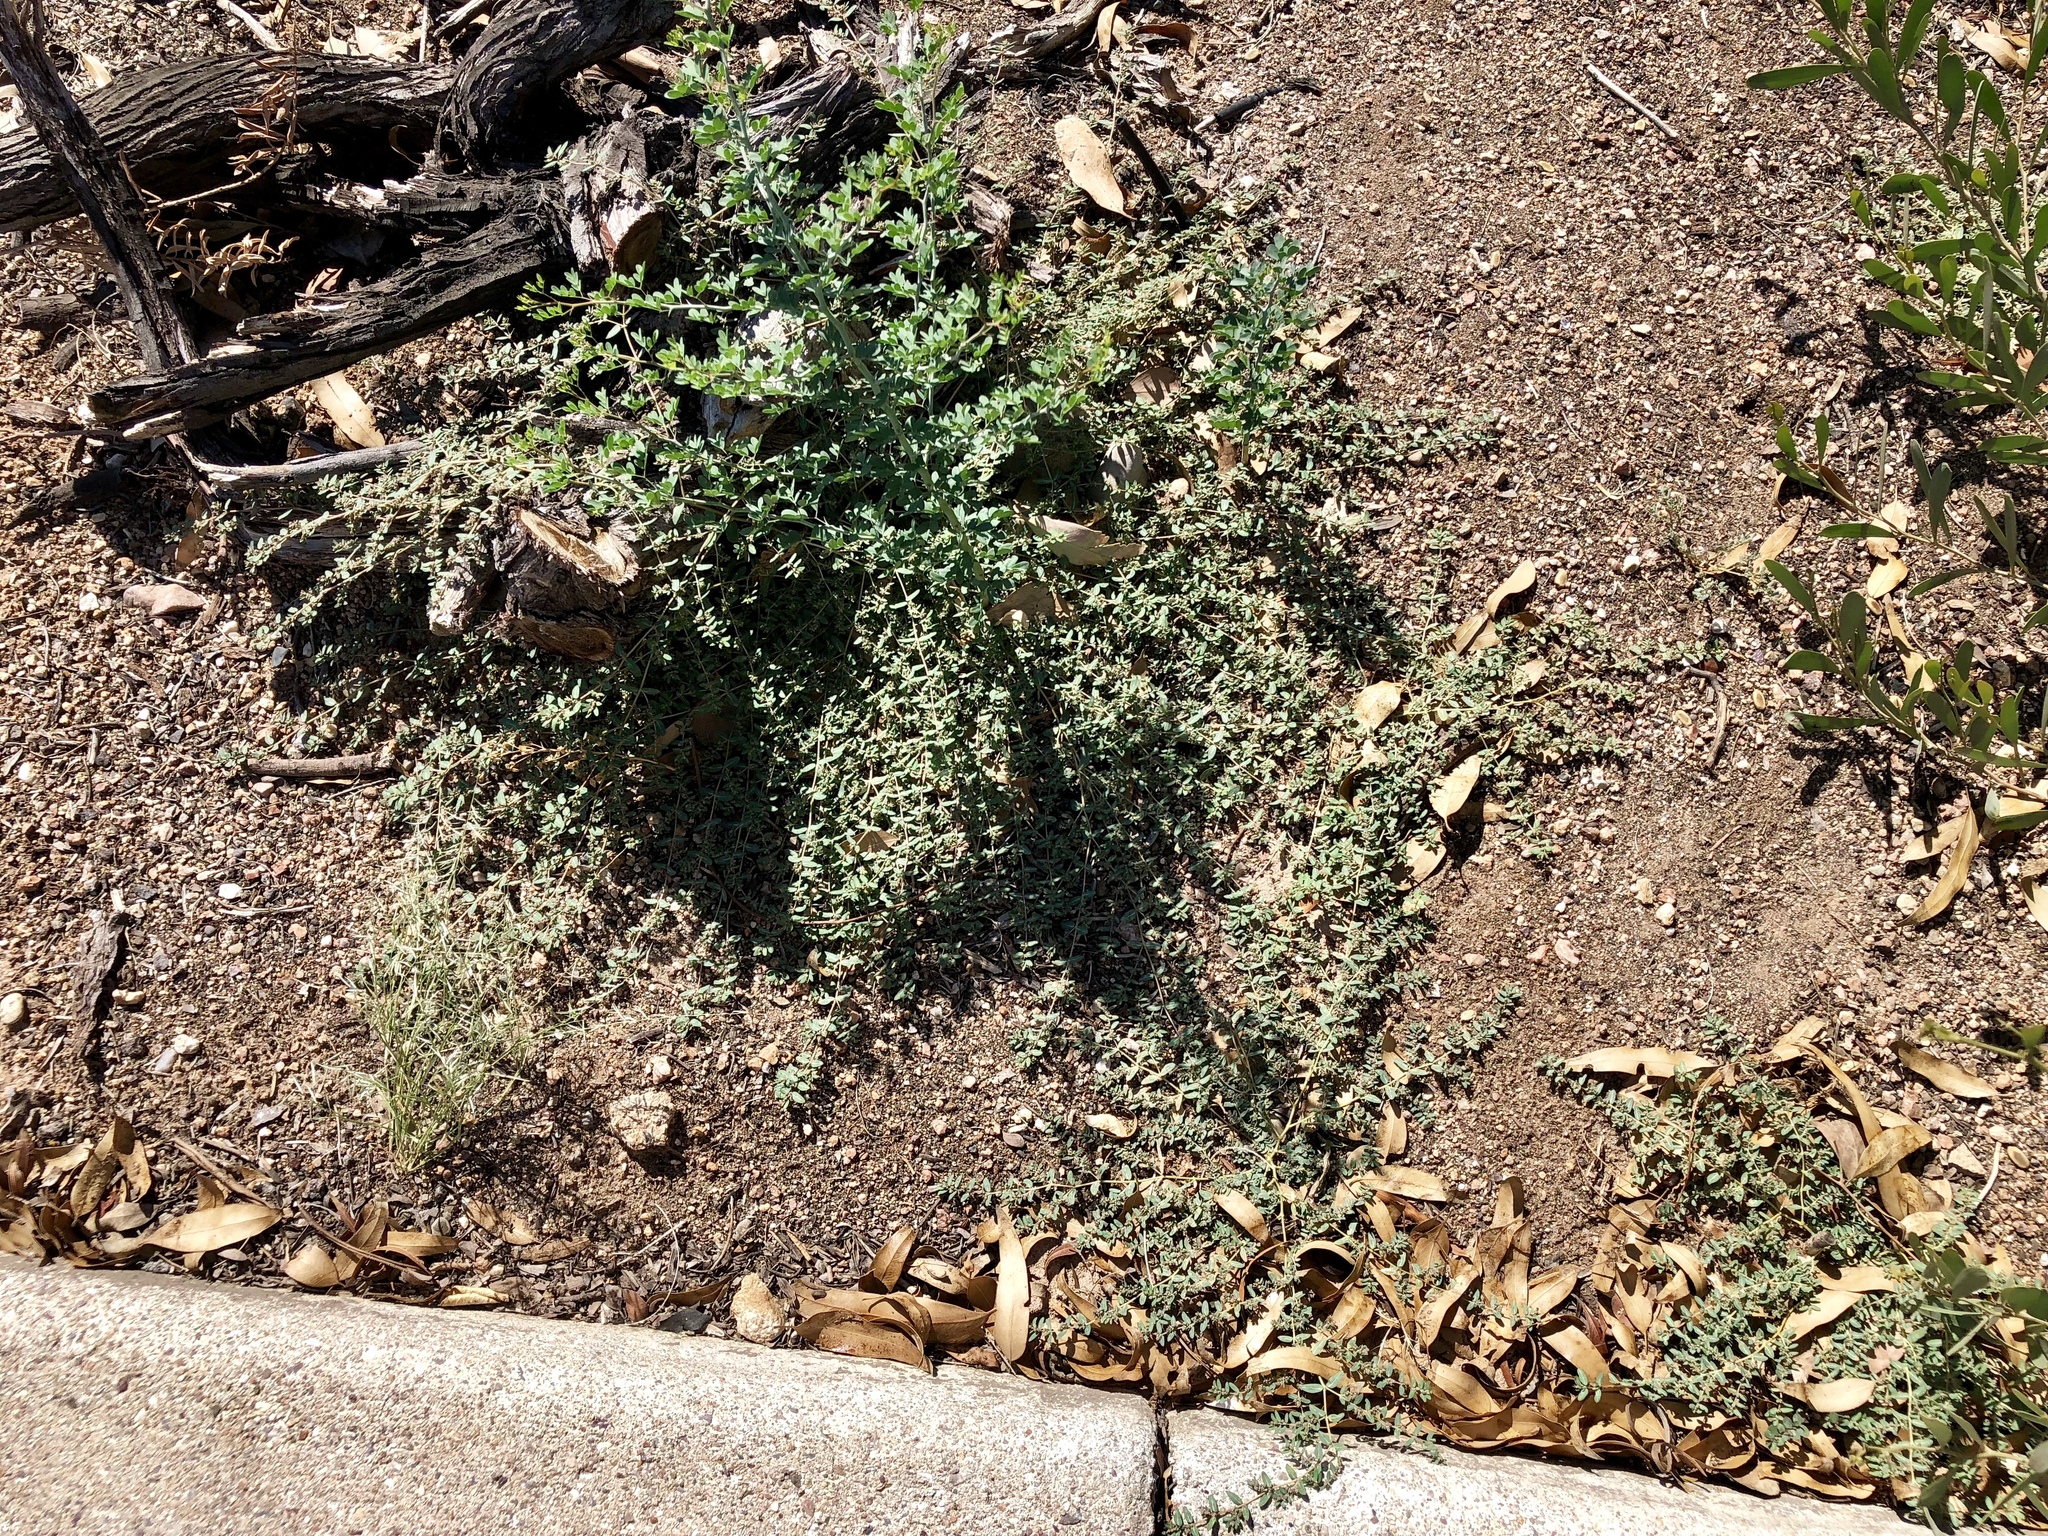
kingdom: Plantae
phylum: Tracheophyta
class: Magnoliopsida
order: Malpighiales
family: Euphorbiaceae
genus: Euphorbia
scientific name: Euphorbia abramsiana
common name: Abram's spurge
